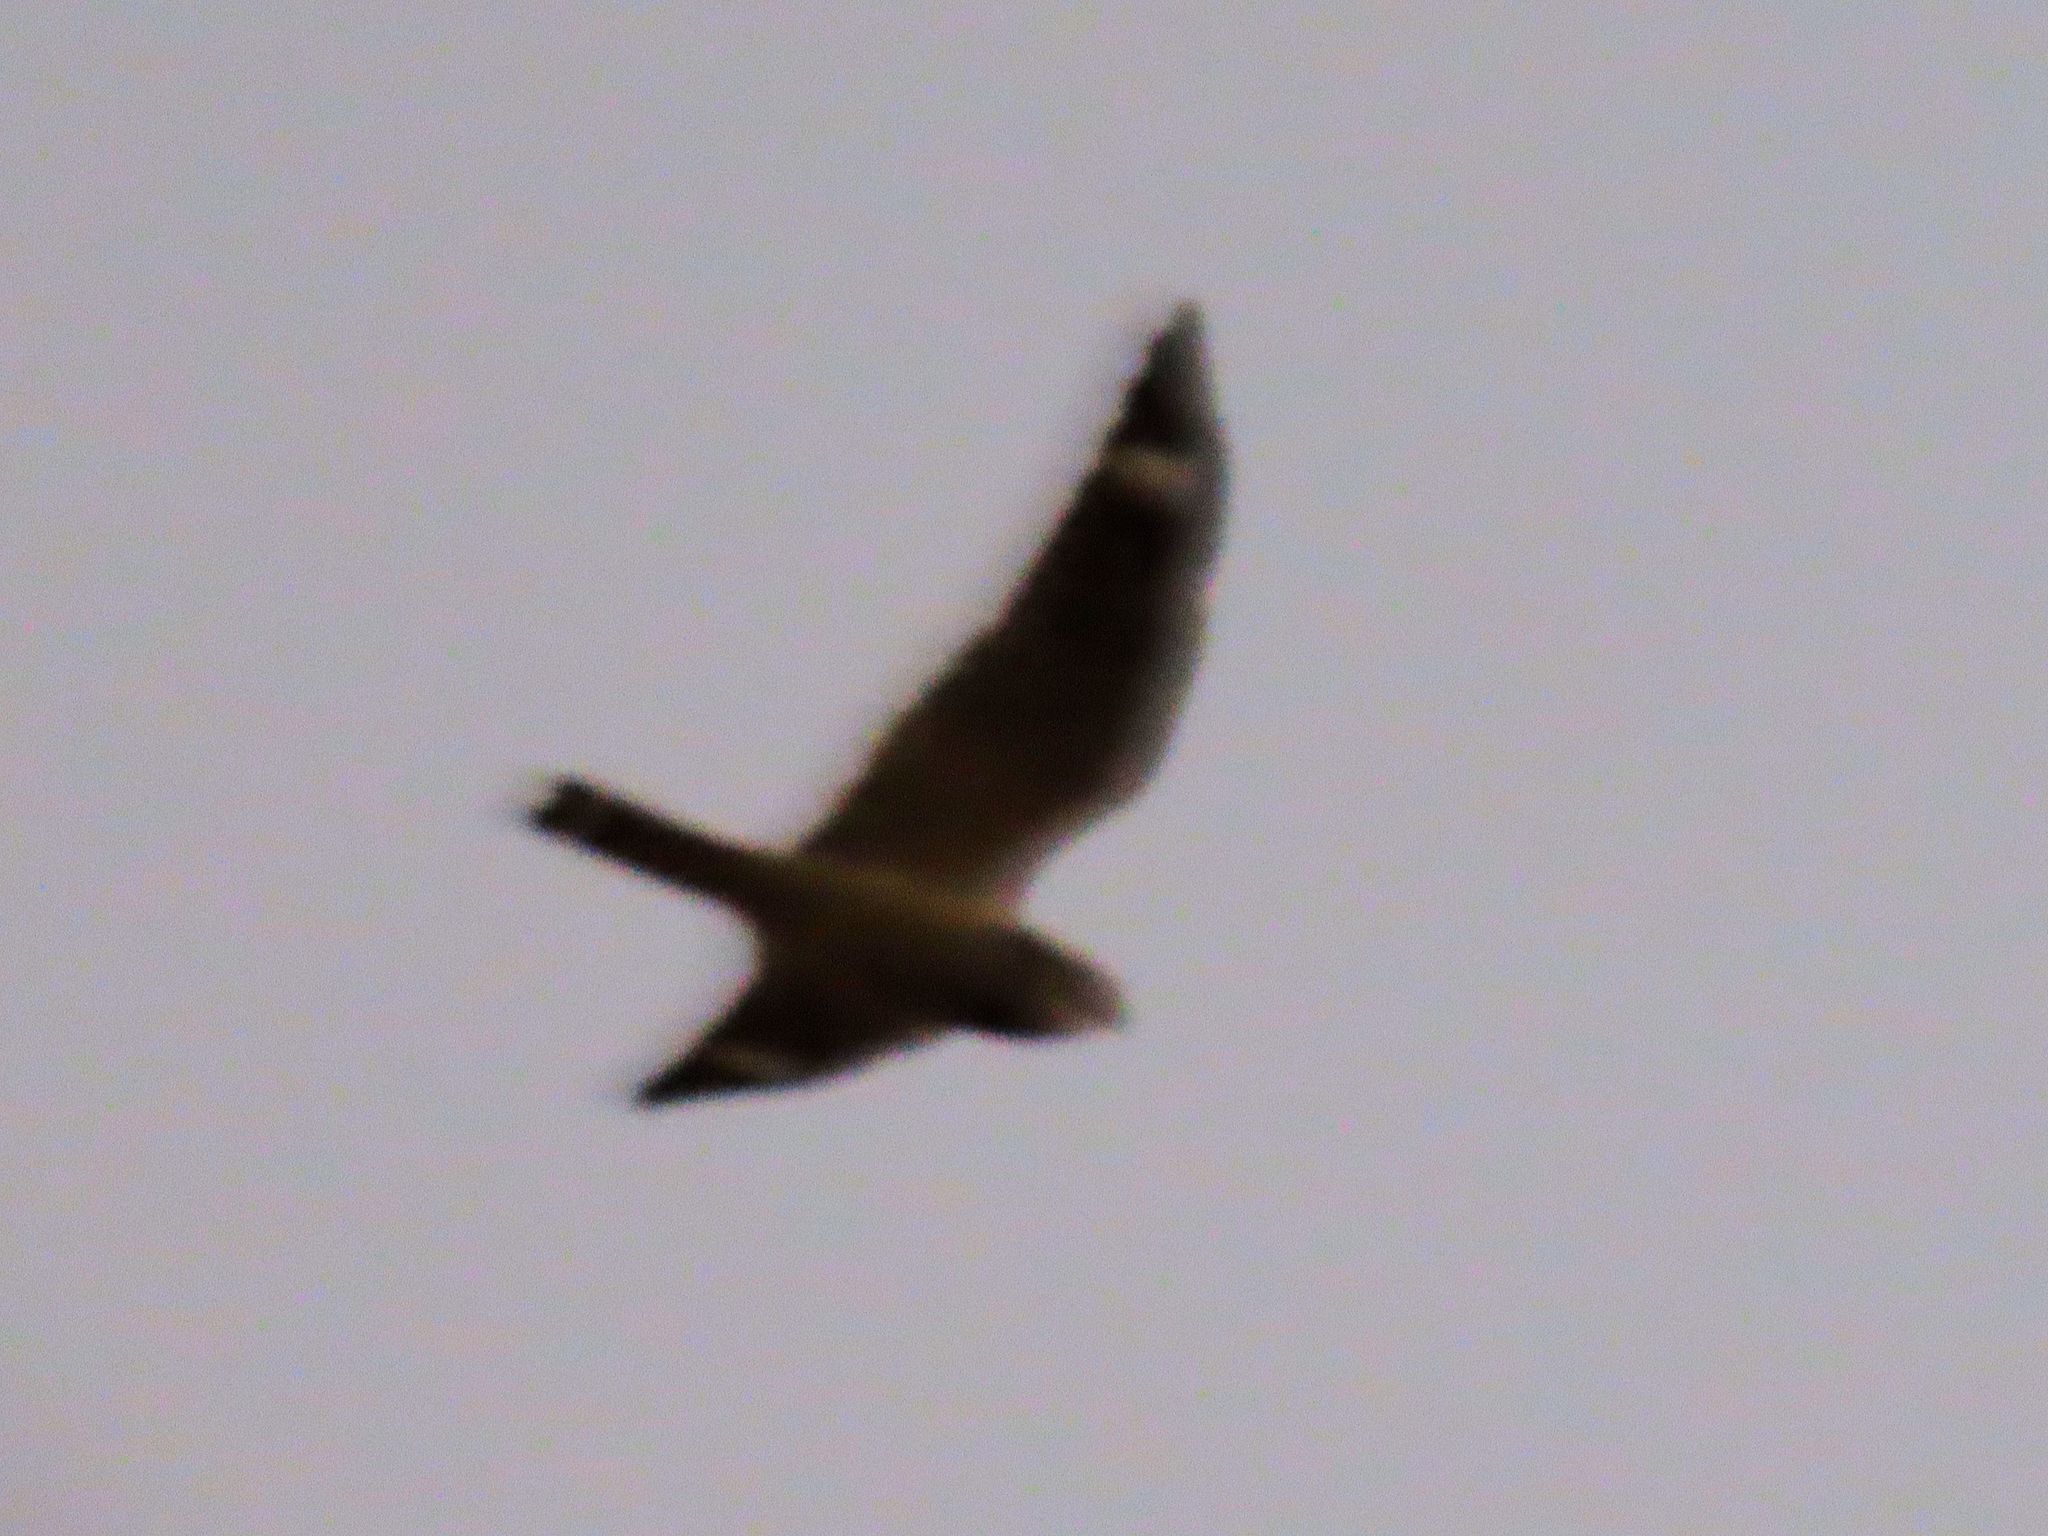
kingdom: Animalia
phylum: Chordata
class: Aves
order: Caprimulgiformes
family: Caprimulgidae
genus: Chordeiles
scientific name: Chordeiles acutipennis
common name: Lesser nighthawk
